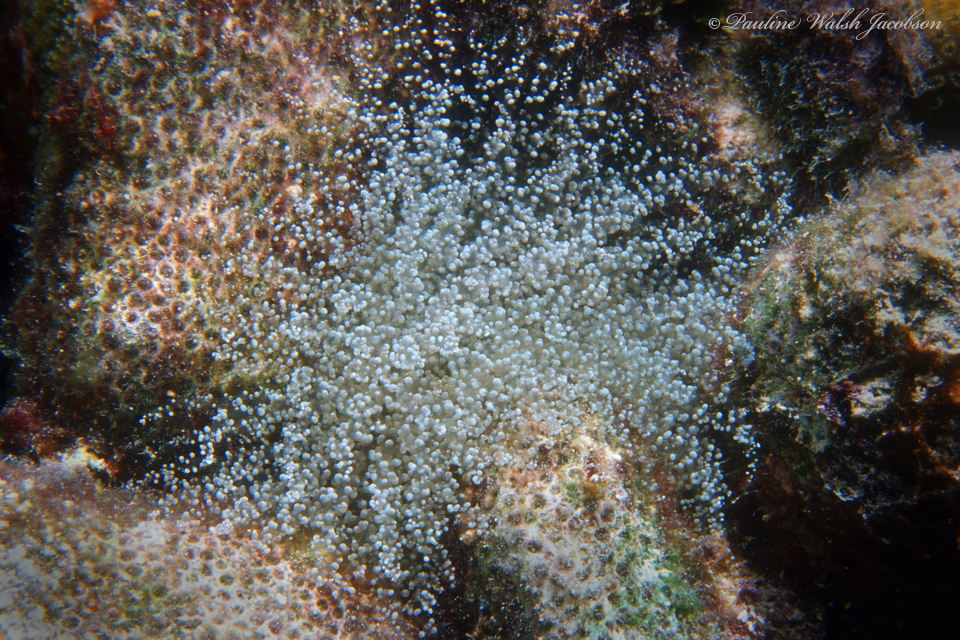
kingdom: Animalia
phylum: Cnidaria
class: Anthozoa
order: Actiniaria
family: Aiptasiidae
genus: Laviactis
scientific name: Laviactis lucida
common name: Atlantic beaded anemone
